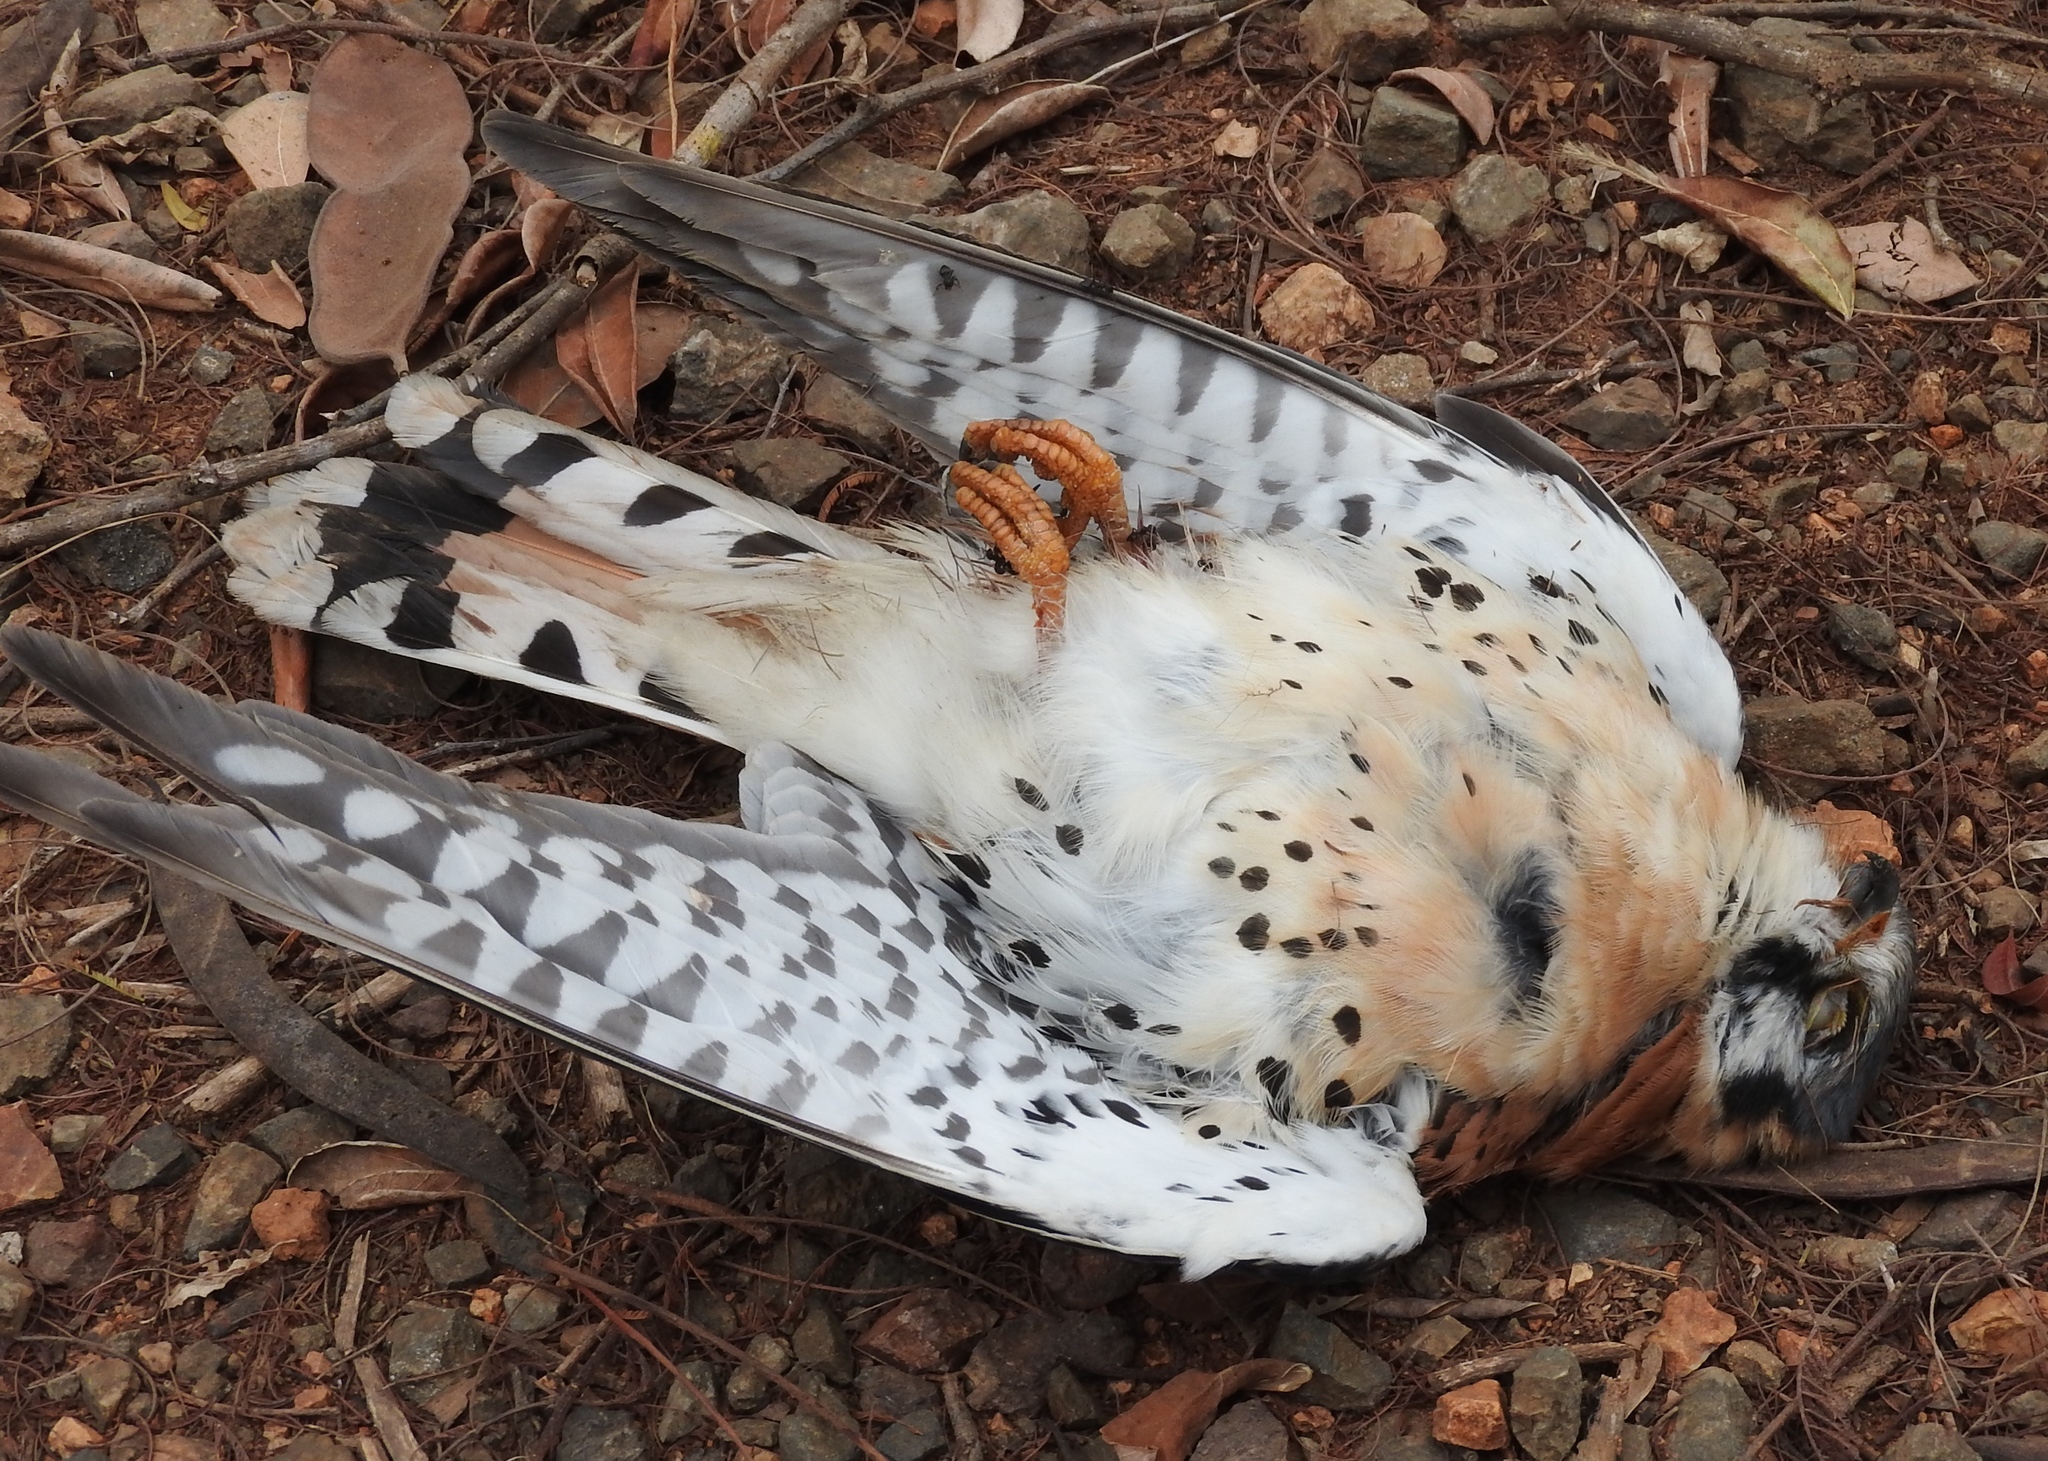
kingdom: Animalia
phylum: Chordata
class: Aves
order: Falconiformes
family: Falconidae
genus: Falco
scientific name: Falco sparverius
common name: American kestrel
